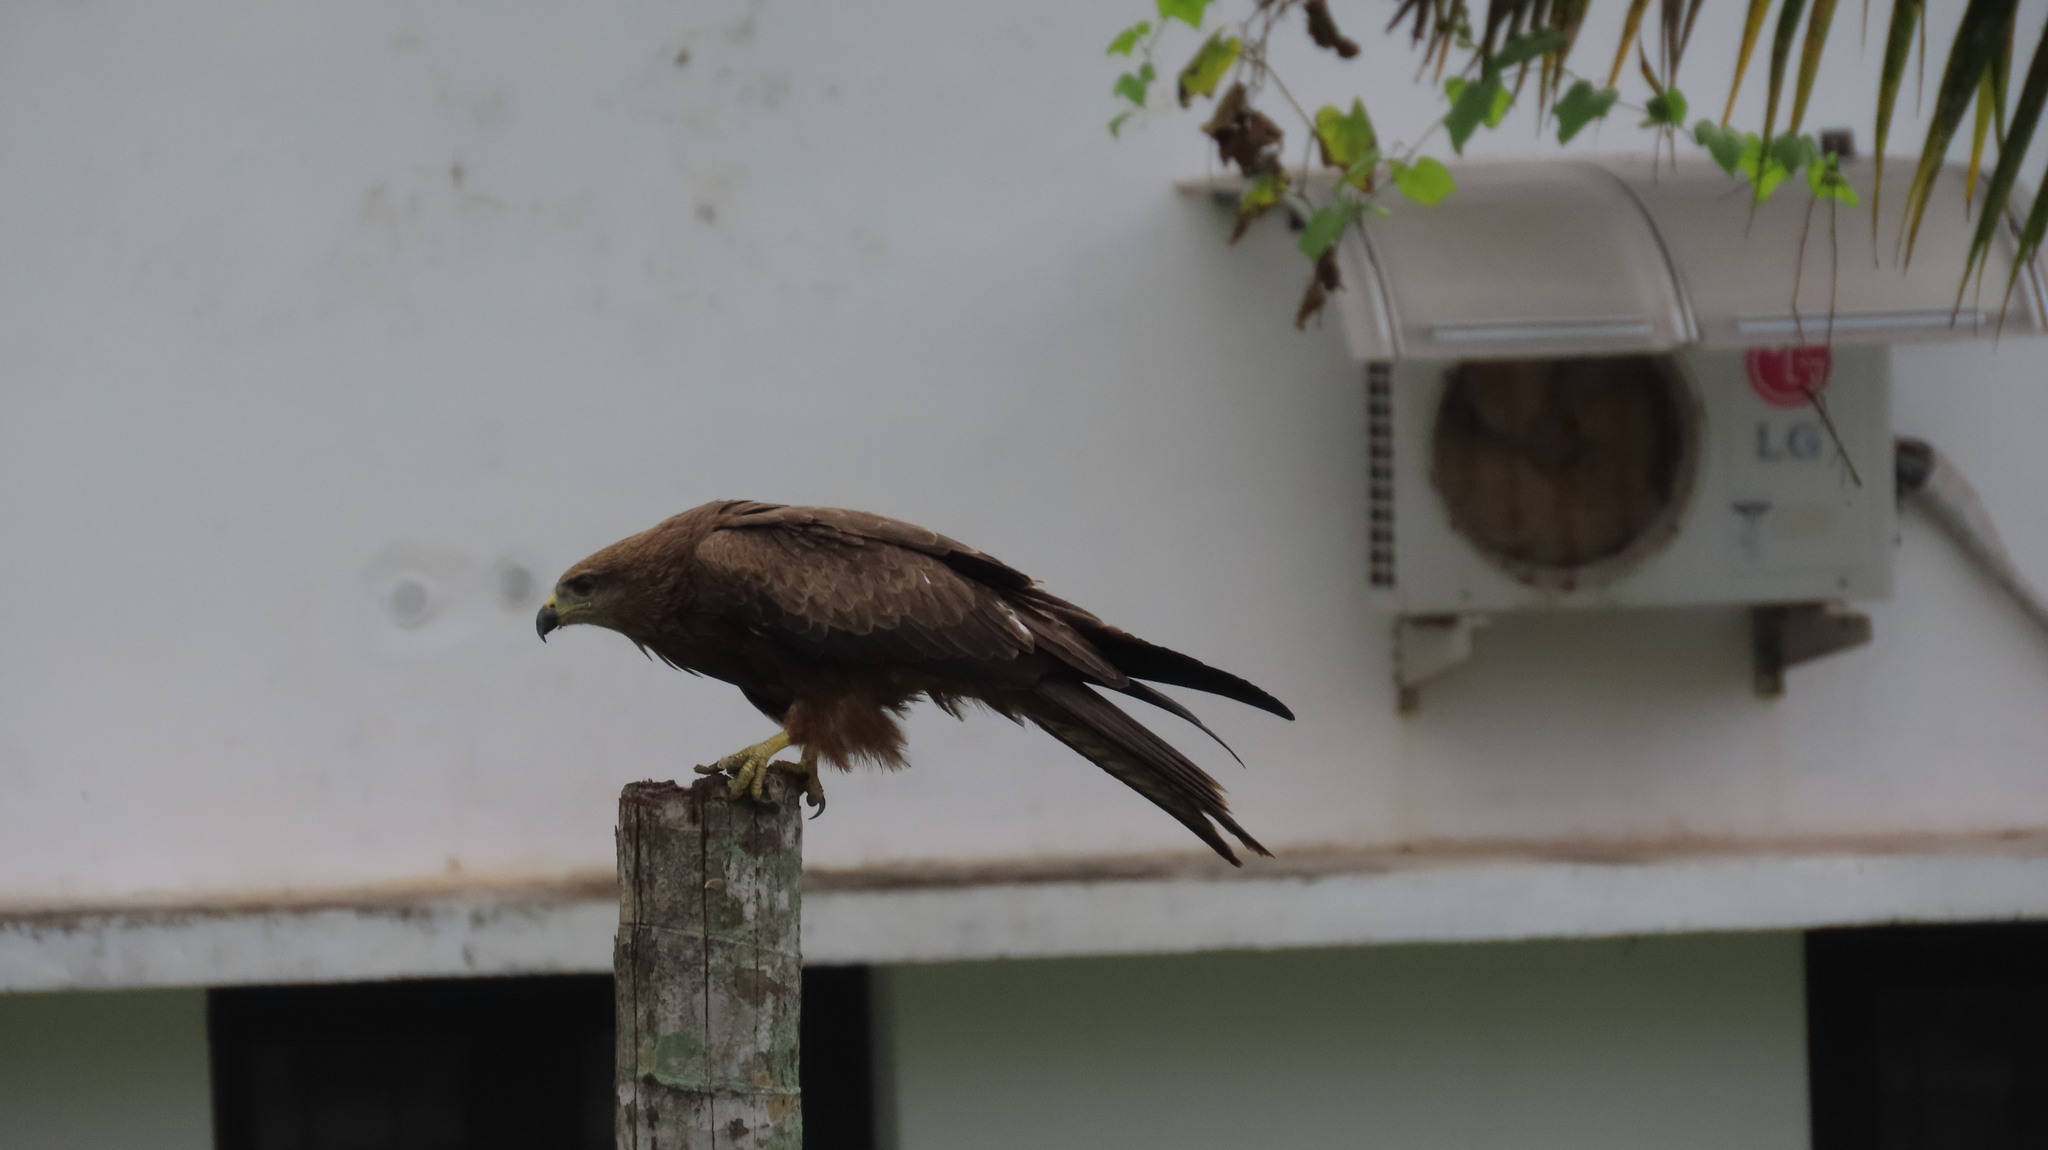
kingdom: Animalia
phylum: Chordata
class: Aves
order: Accipitriformes
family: Accipitridae
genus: Milvus
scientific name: Milvus migrans
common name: Black kite
